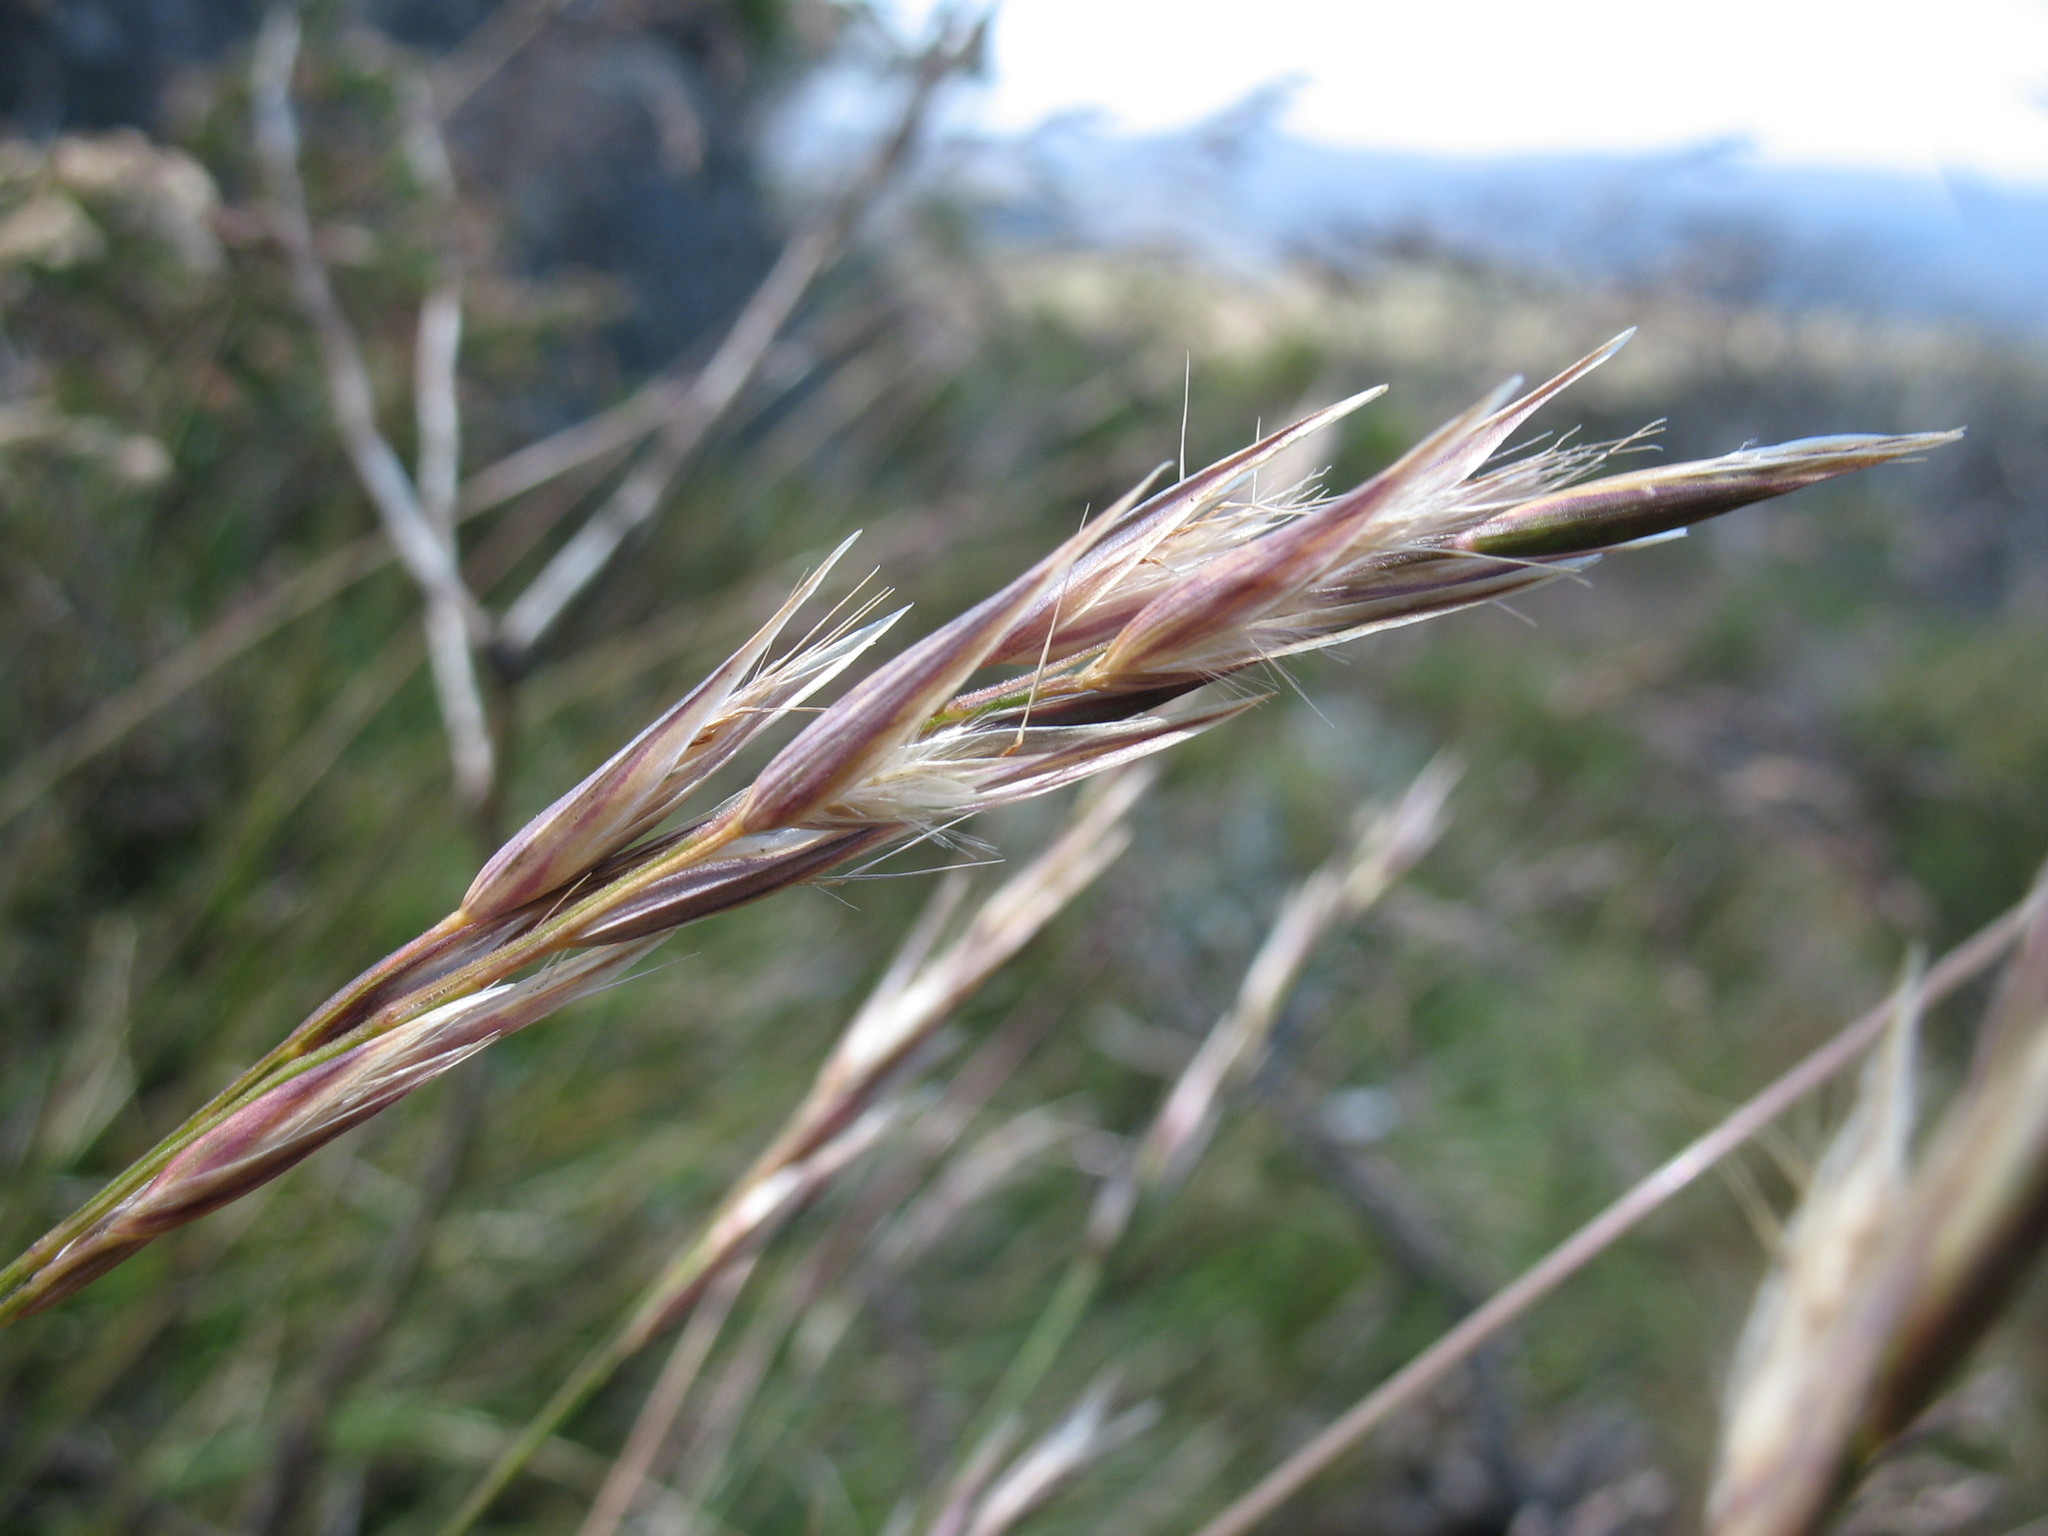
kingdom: Plantae
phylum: Tracheophyta
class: Liliopsida
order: Poales
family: Poaceae
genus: Rytidosperma
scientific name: Rytidosperma penicillatum
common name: Hairy wallaby grass
